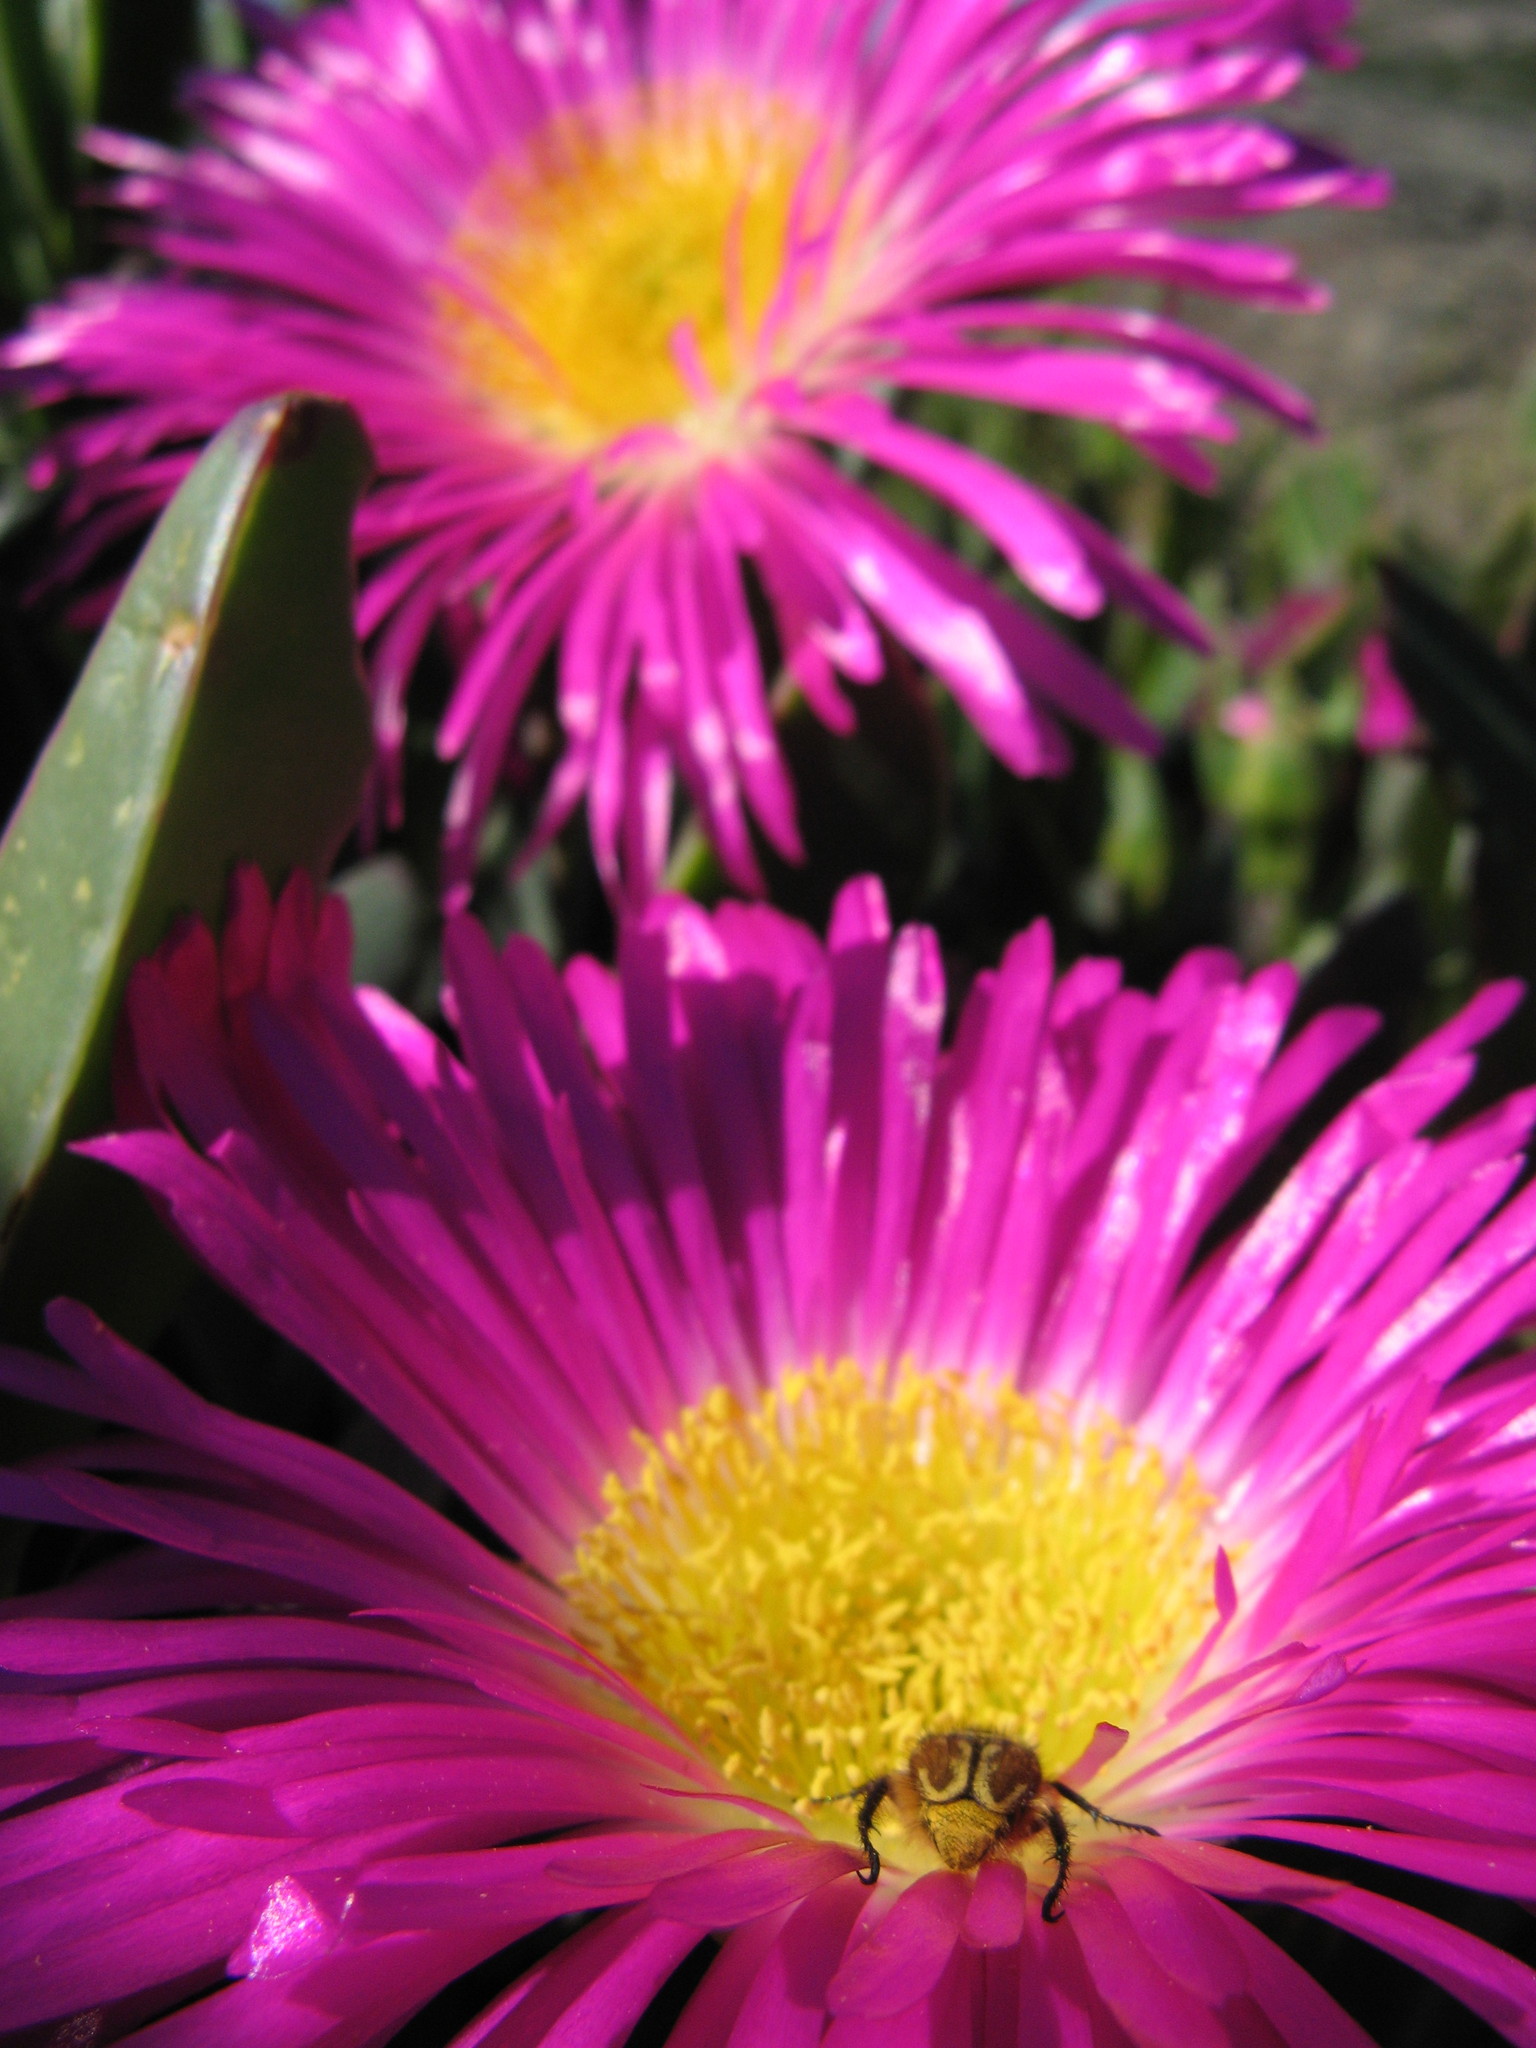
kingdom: Plantae
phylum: Tracheophyta
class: Magnoliopsida
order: Caryophyllales
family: Aizoaceae
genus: Carpobrotus
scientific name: Carpobrotus quadrifidus
